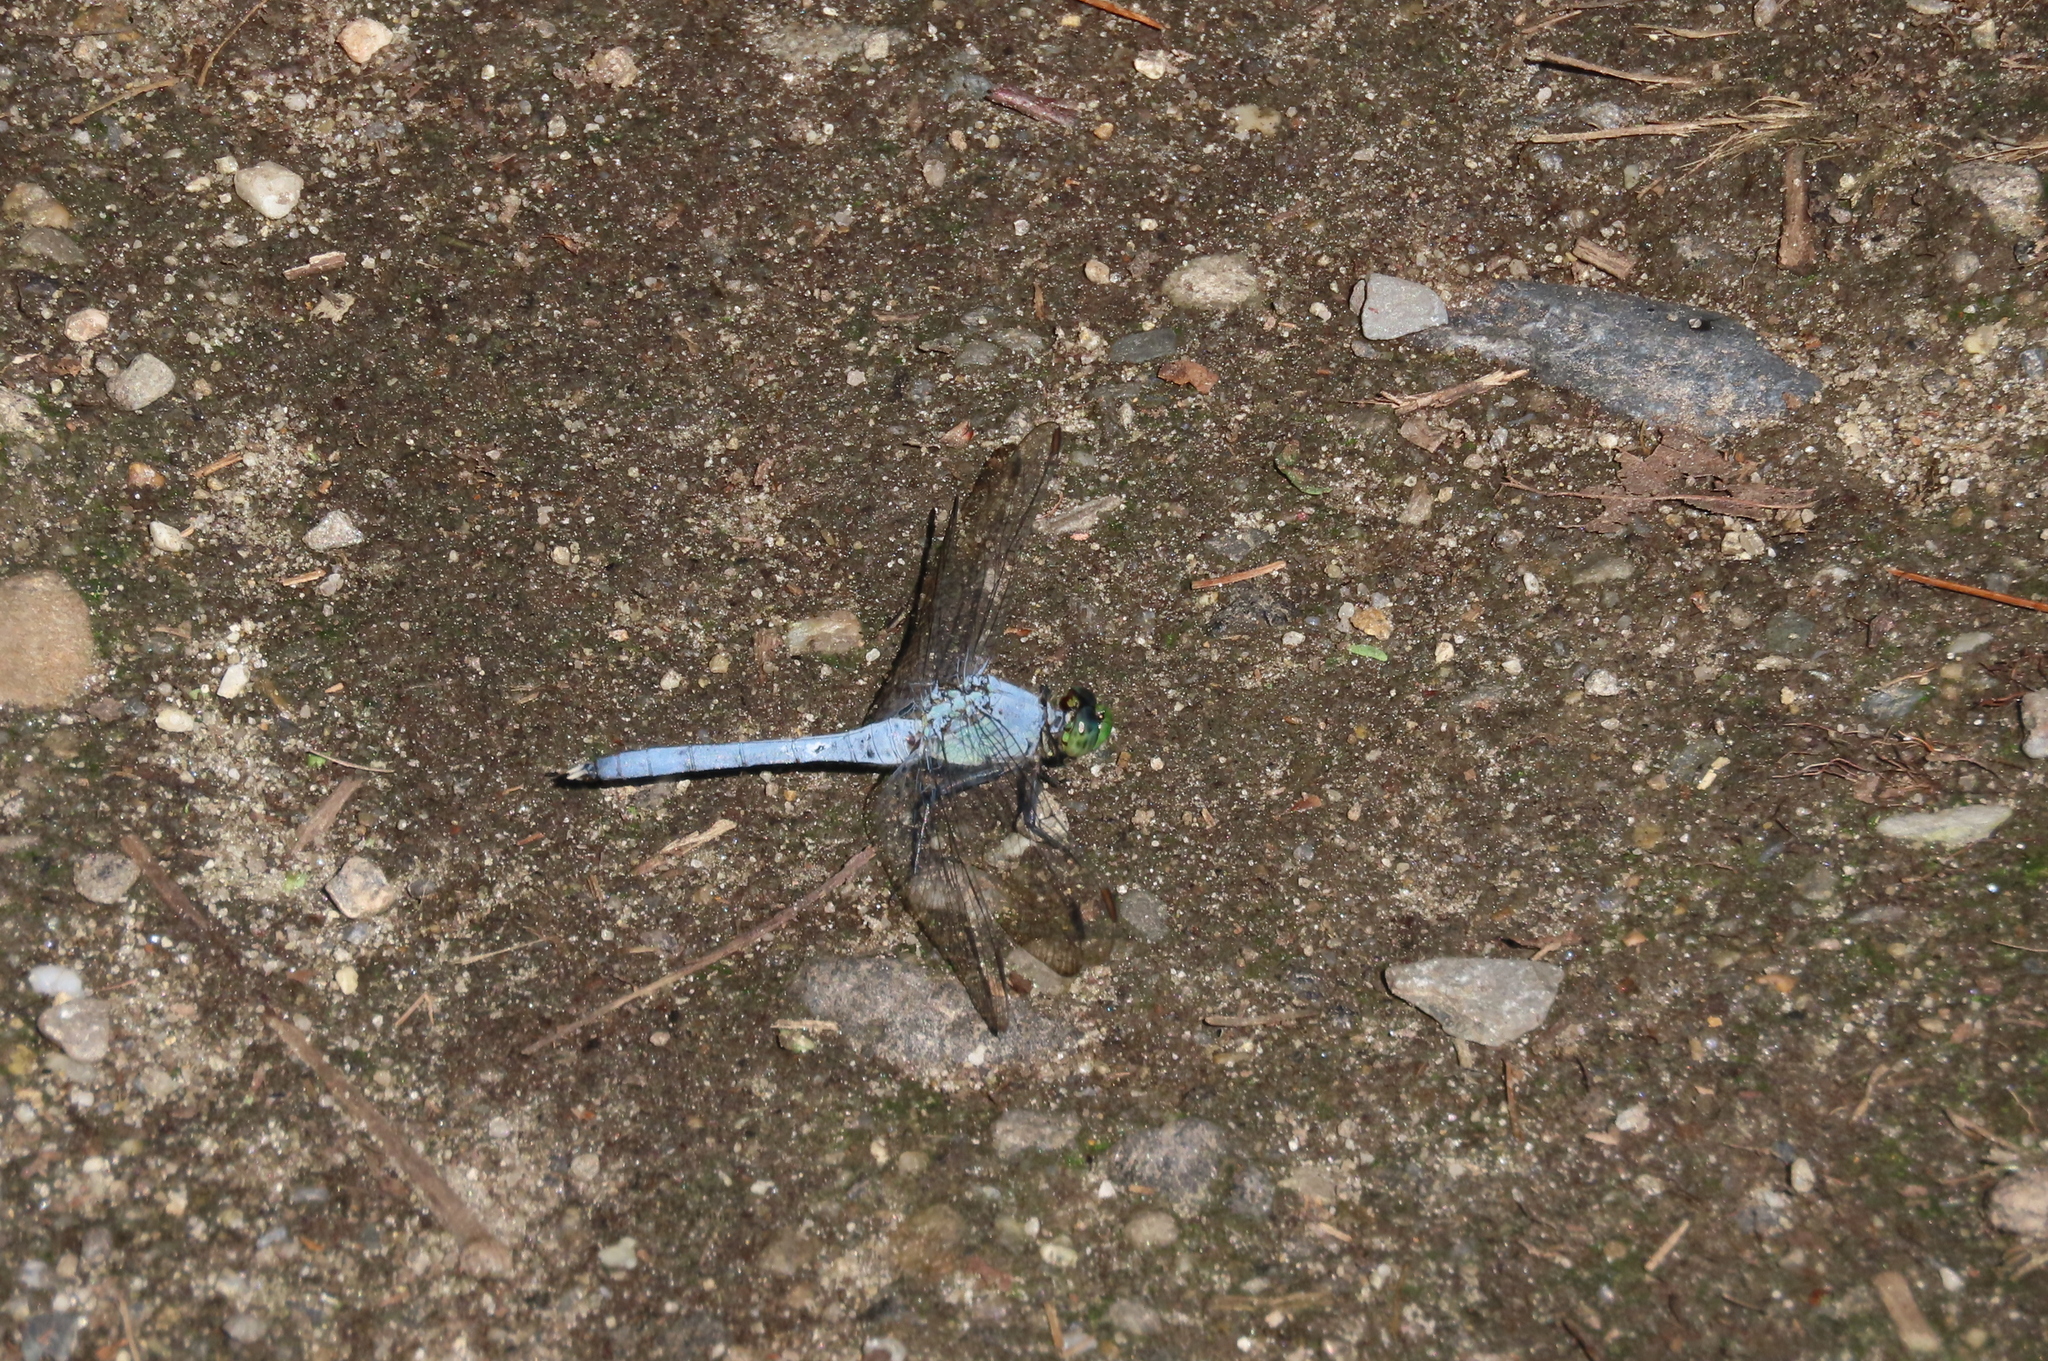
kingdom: Animalia
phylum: Arthropoda
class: Insecta
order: Odonata
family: Libellulidae
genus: Erythemis
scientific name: Erythemis simplicicollis
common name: Eastern pondhawk
